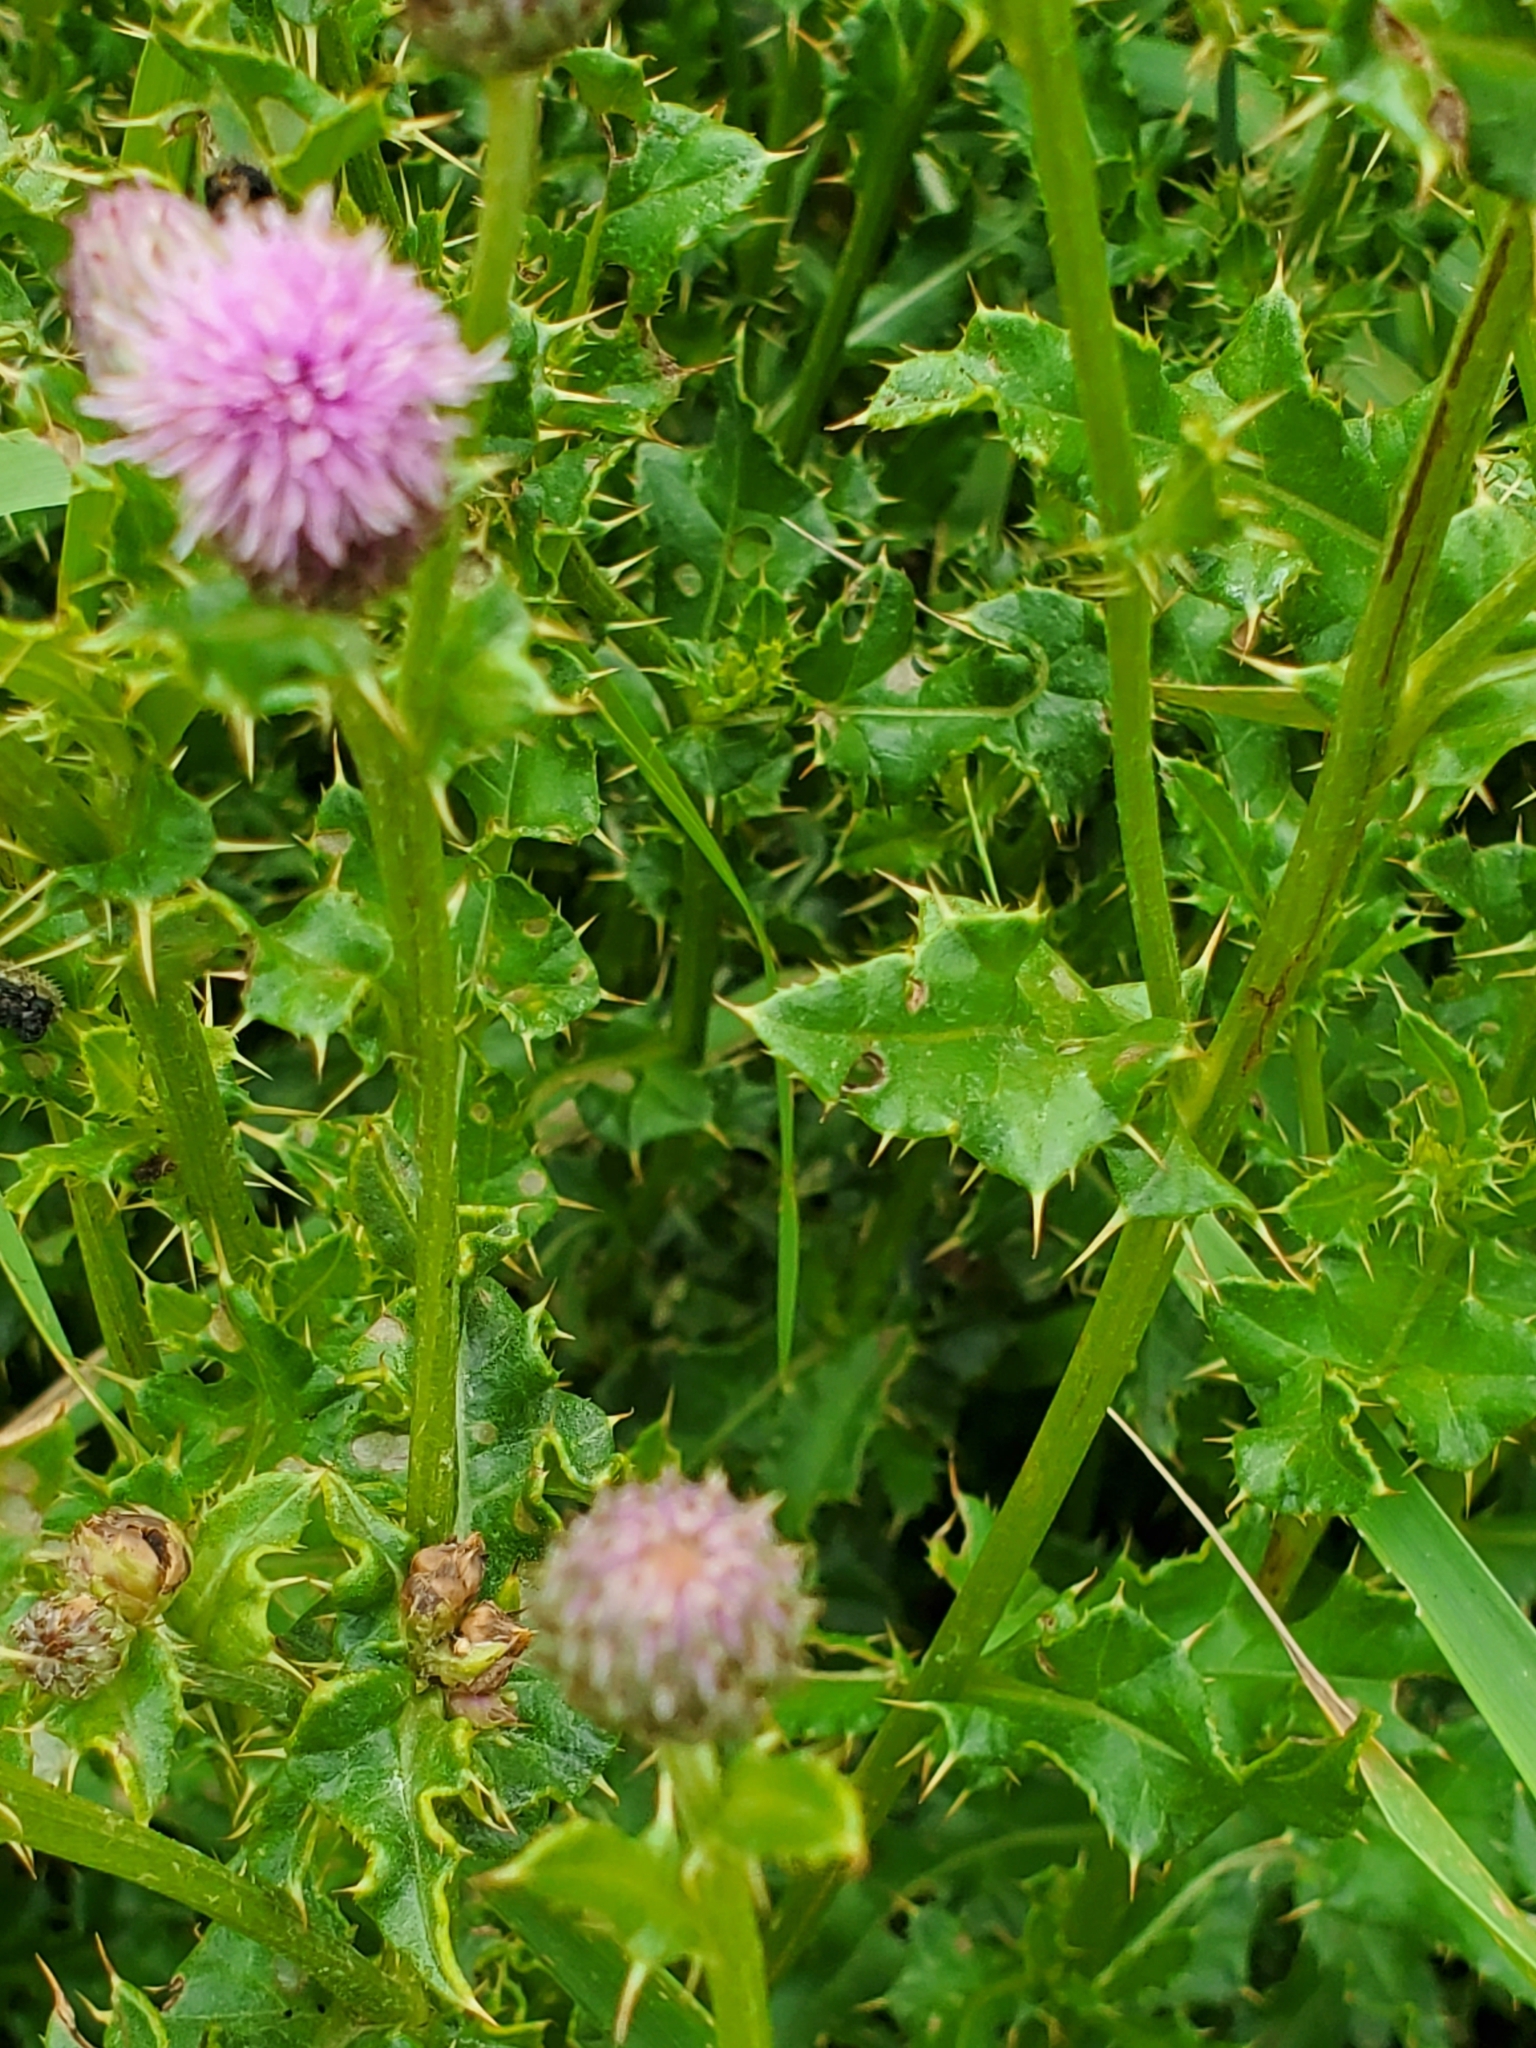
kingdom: Plantae
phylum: Tracheophyta
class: Magnoliopsida
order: Asterales
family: Asteraceae
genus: Cirsium
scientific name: Cirsium arvense
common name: Creeping thistle
